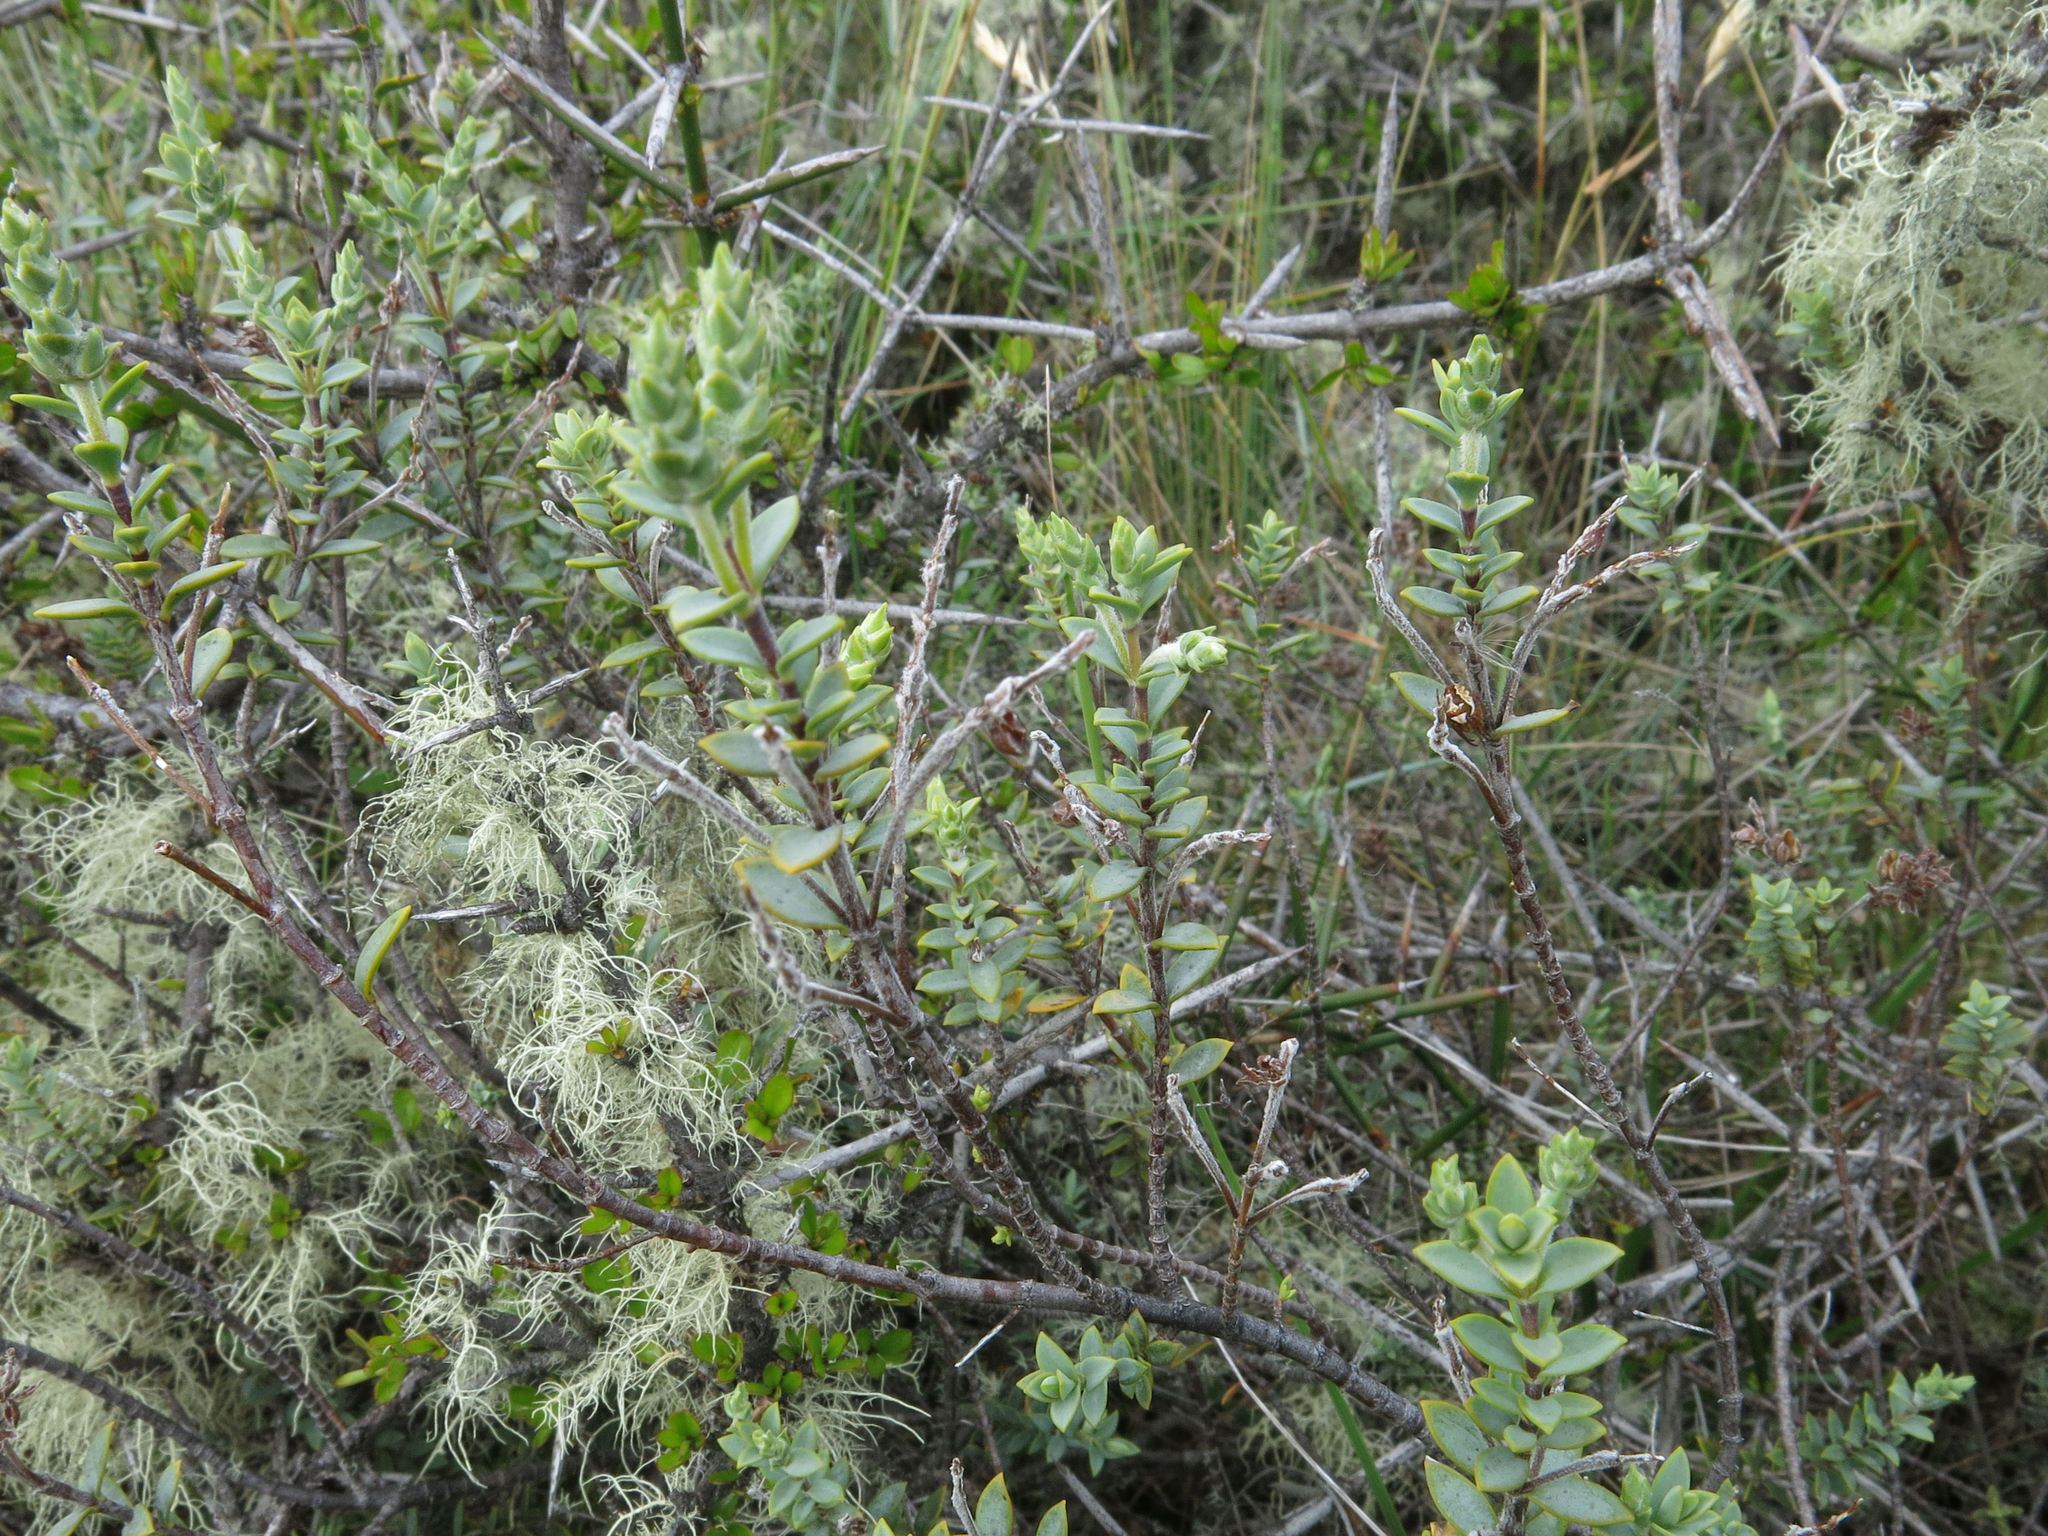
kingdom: Plantae
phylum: Tracheophyta
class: Magnoliopsida
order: Lamiales
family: Plantaginaceae
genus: Veronica
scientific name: Veronica pimeleoides
